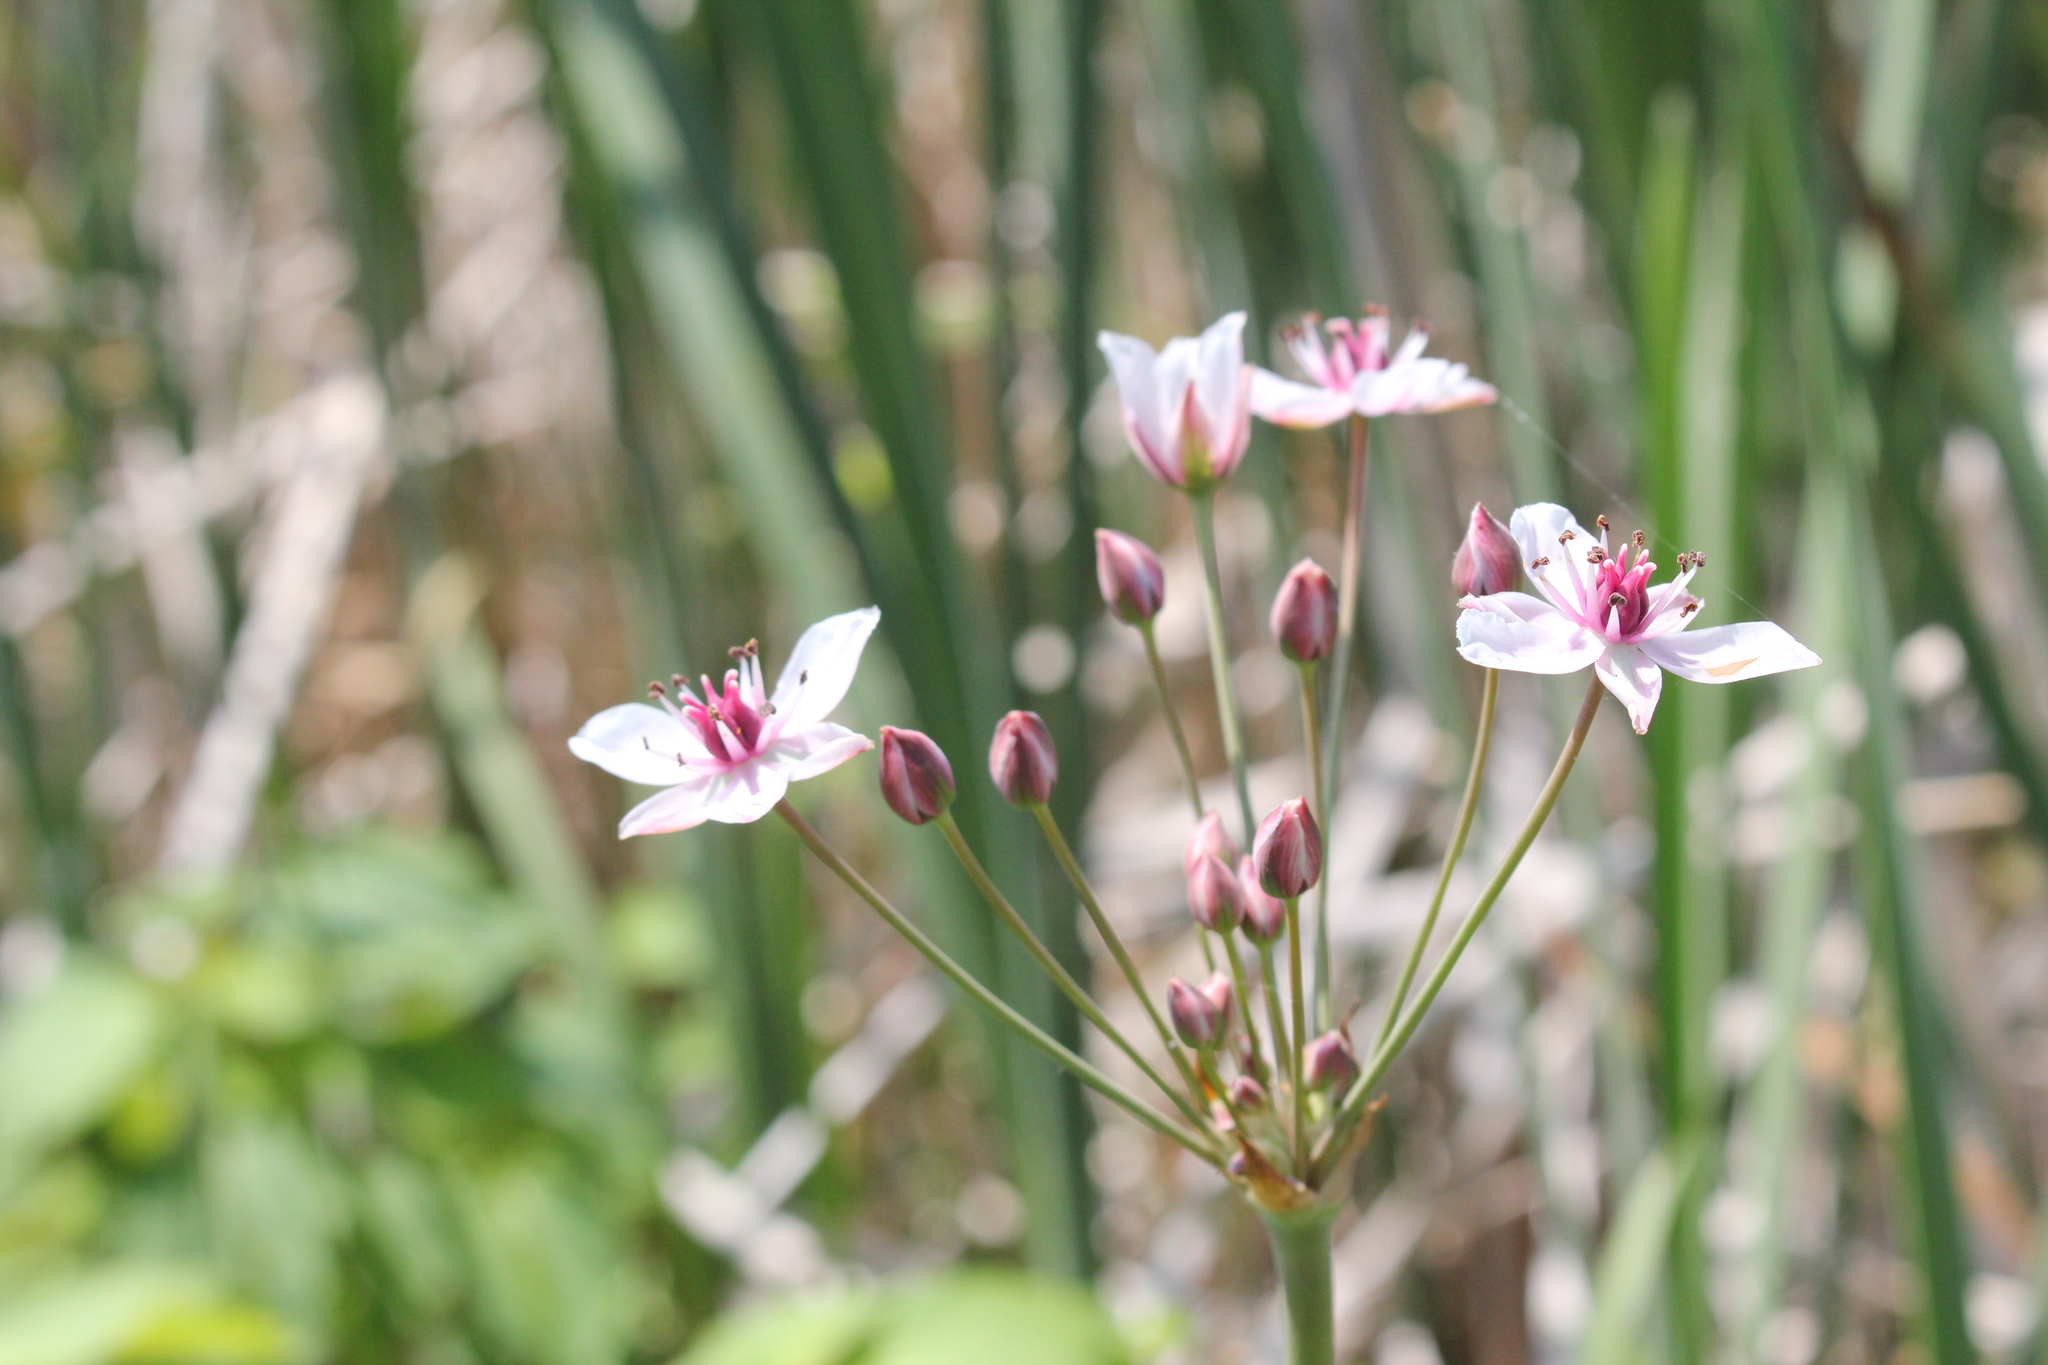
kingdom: Plantae
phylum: Tracheophyta
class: Liliopsida
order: Alismatales
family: Butomaceae
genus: Butomus
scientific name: Butomus umbellatus
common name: Flowering-rush
